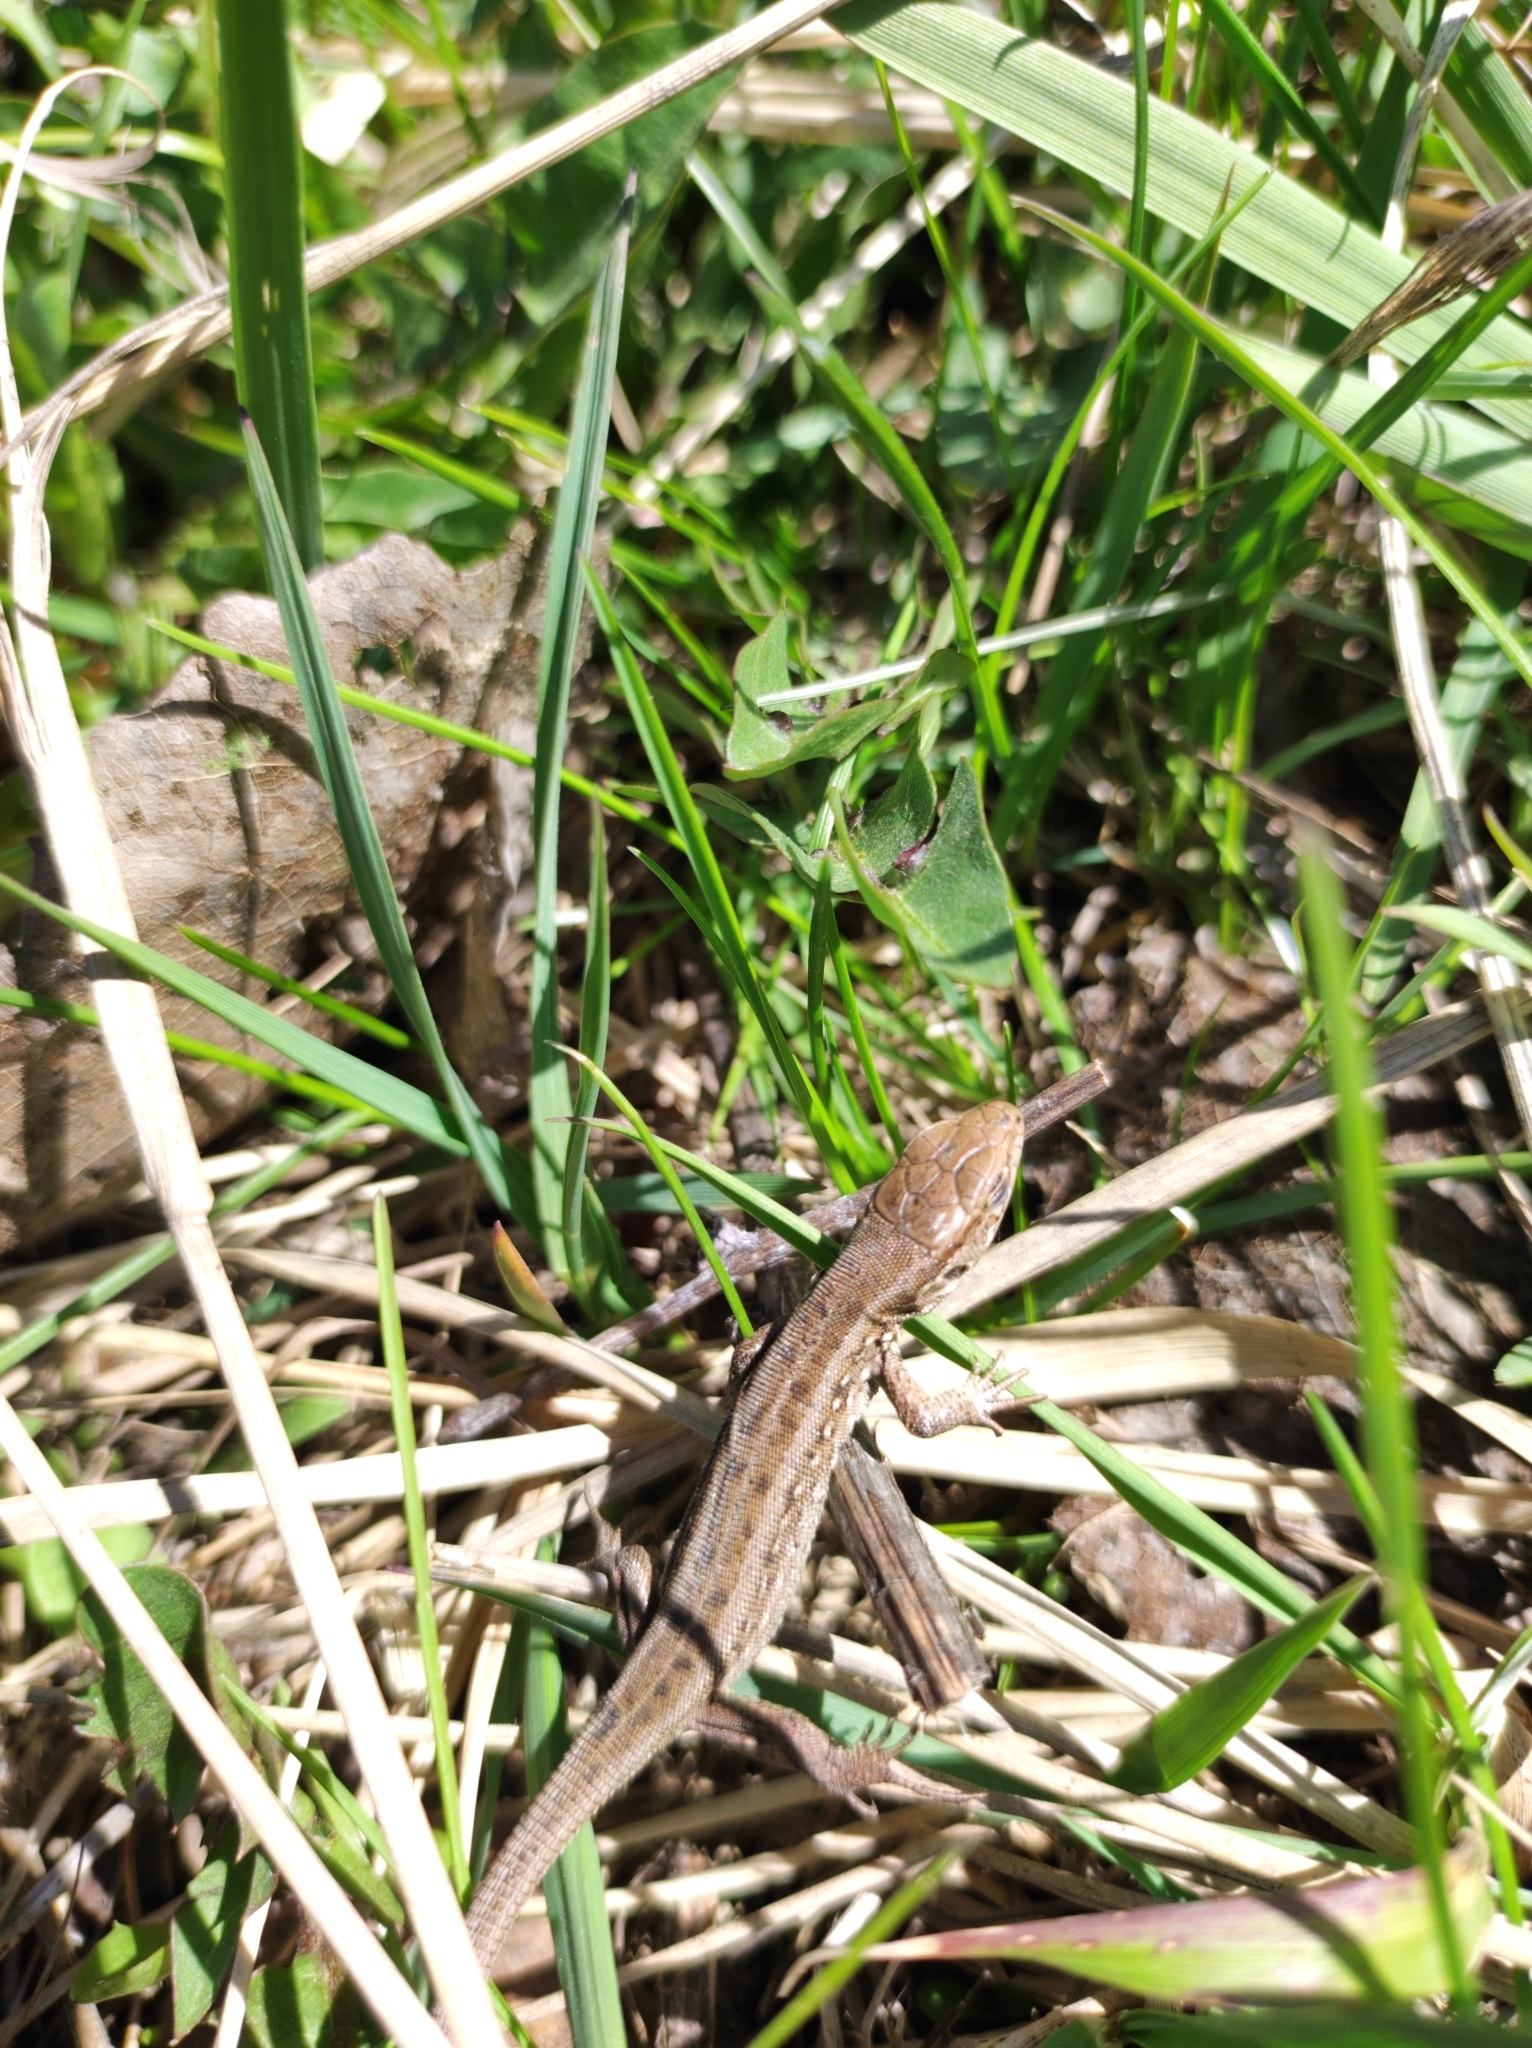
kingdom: Animalia
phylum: Chordata
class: Squamata
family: Lacertidae
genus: Lacerta
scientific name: Lacerta agilis
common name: Sand lizard
